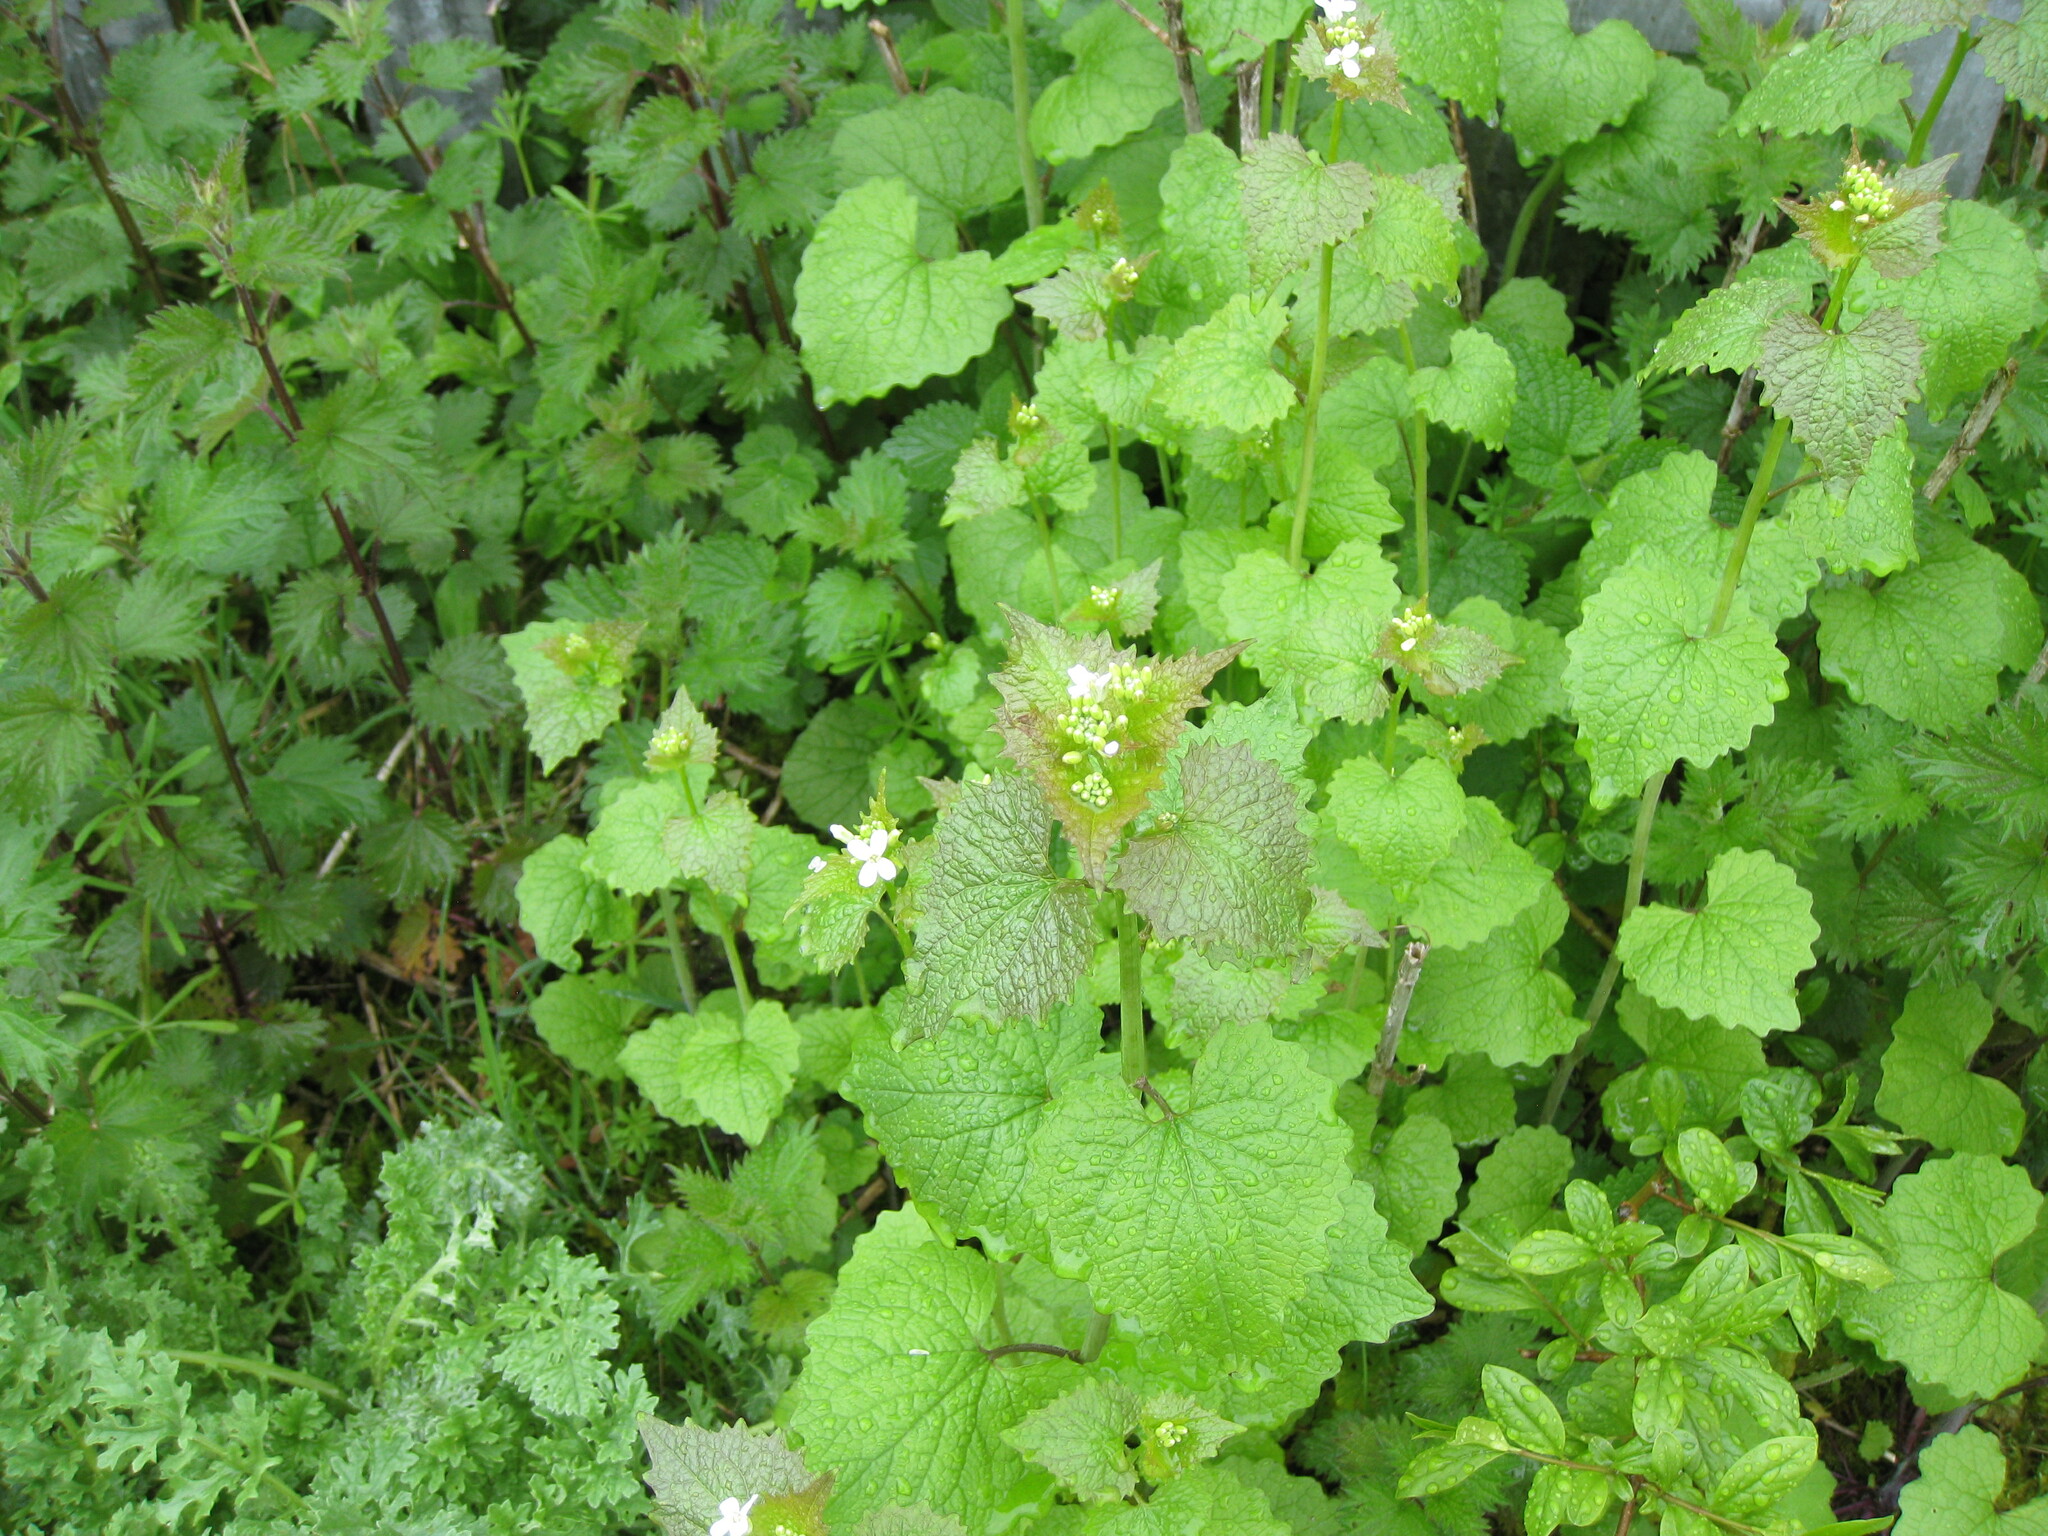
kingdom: Plantae
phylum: Tracheophyta
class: Magnoliopsida
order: Brassicales
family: Brassicaceae
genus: Alliaria
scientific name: Alliaria petiolata
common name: Garlic mustard
